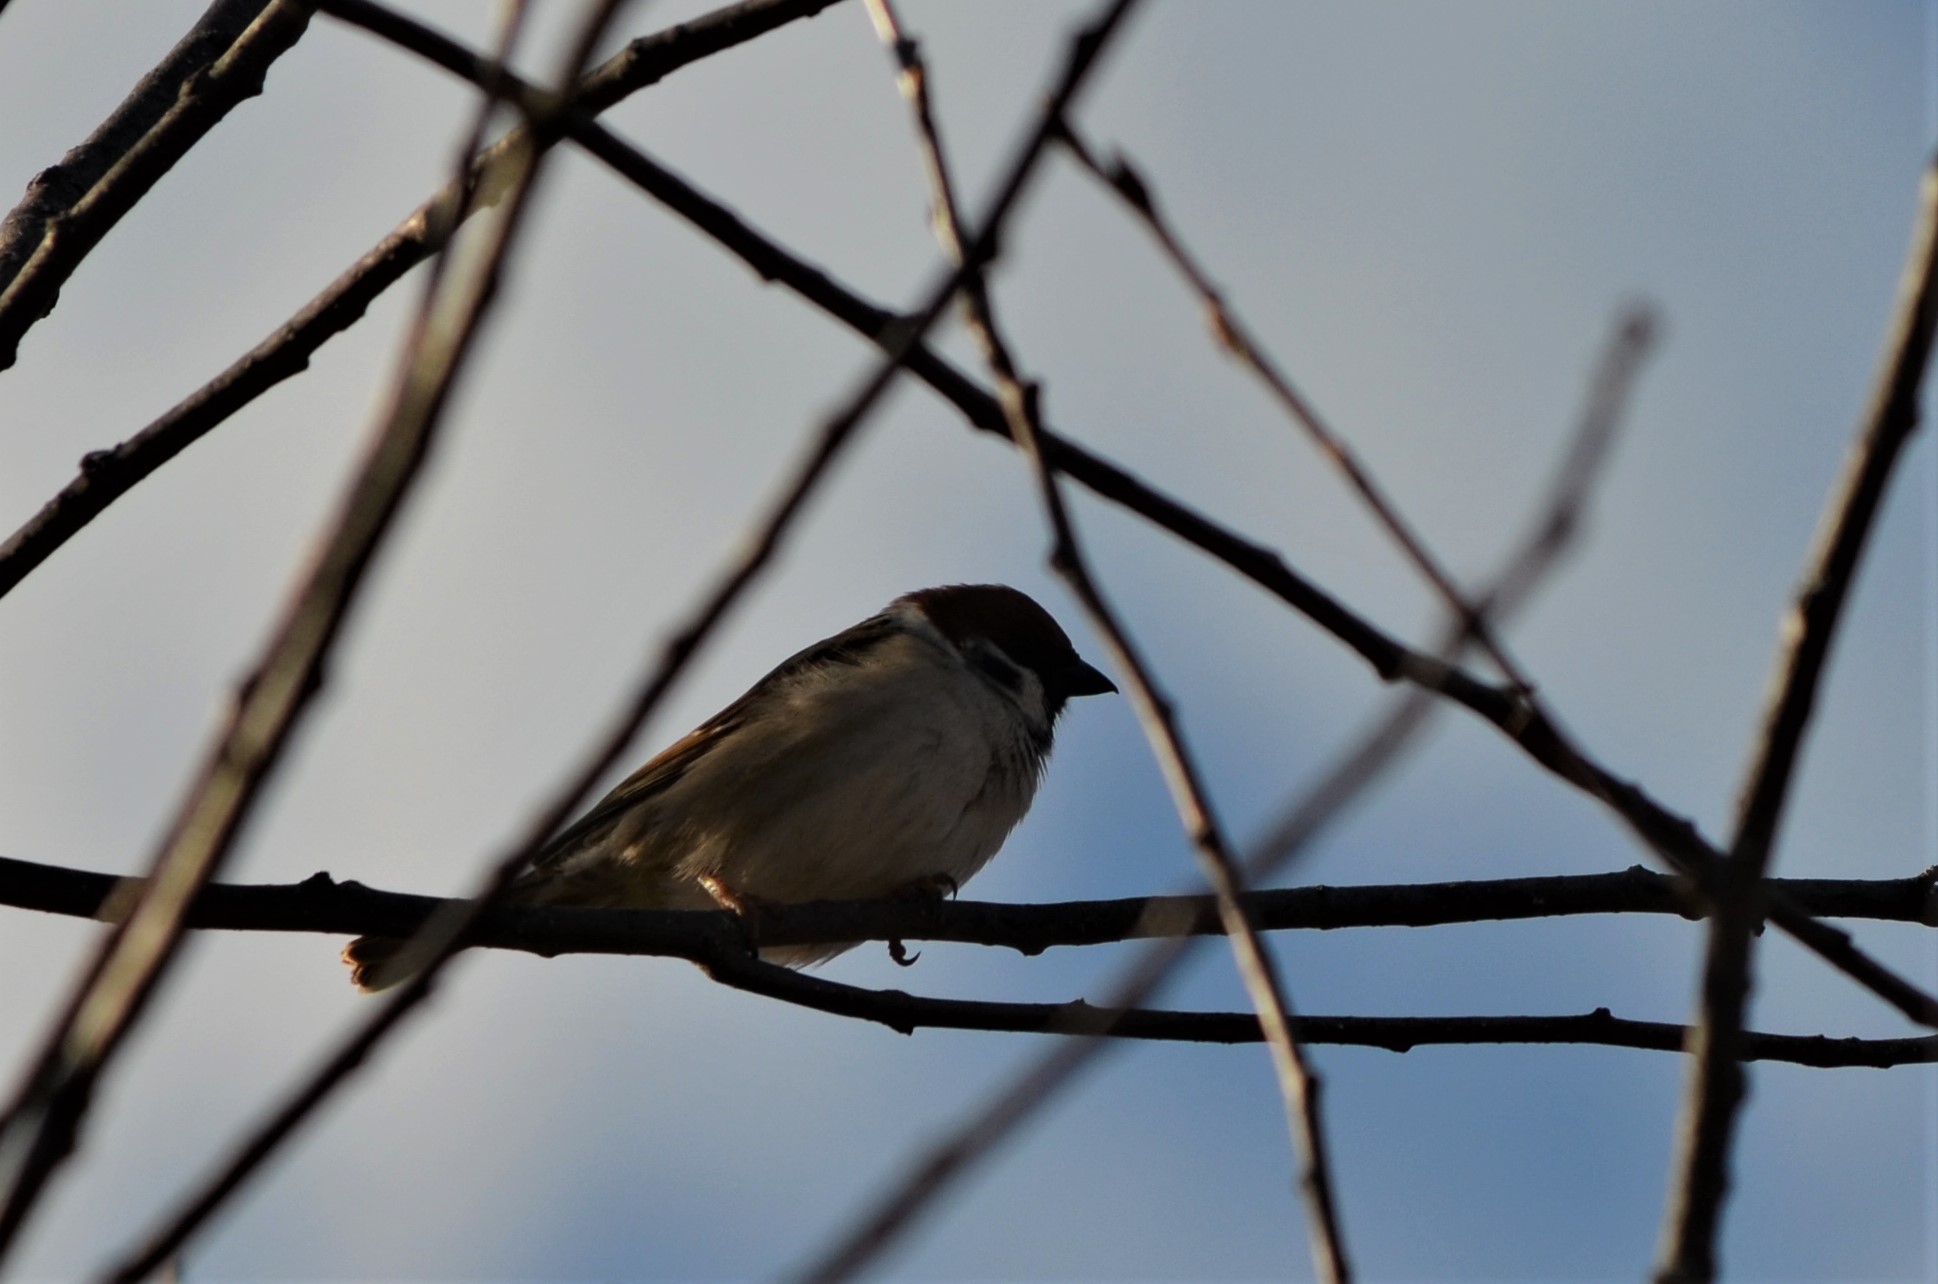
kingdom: Animalia
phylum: Chordata
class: Aves
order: Passeriformes
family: Passeridae
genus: Passer
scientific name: Passer montanus
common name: Eurasian tree sparrow
